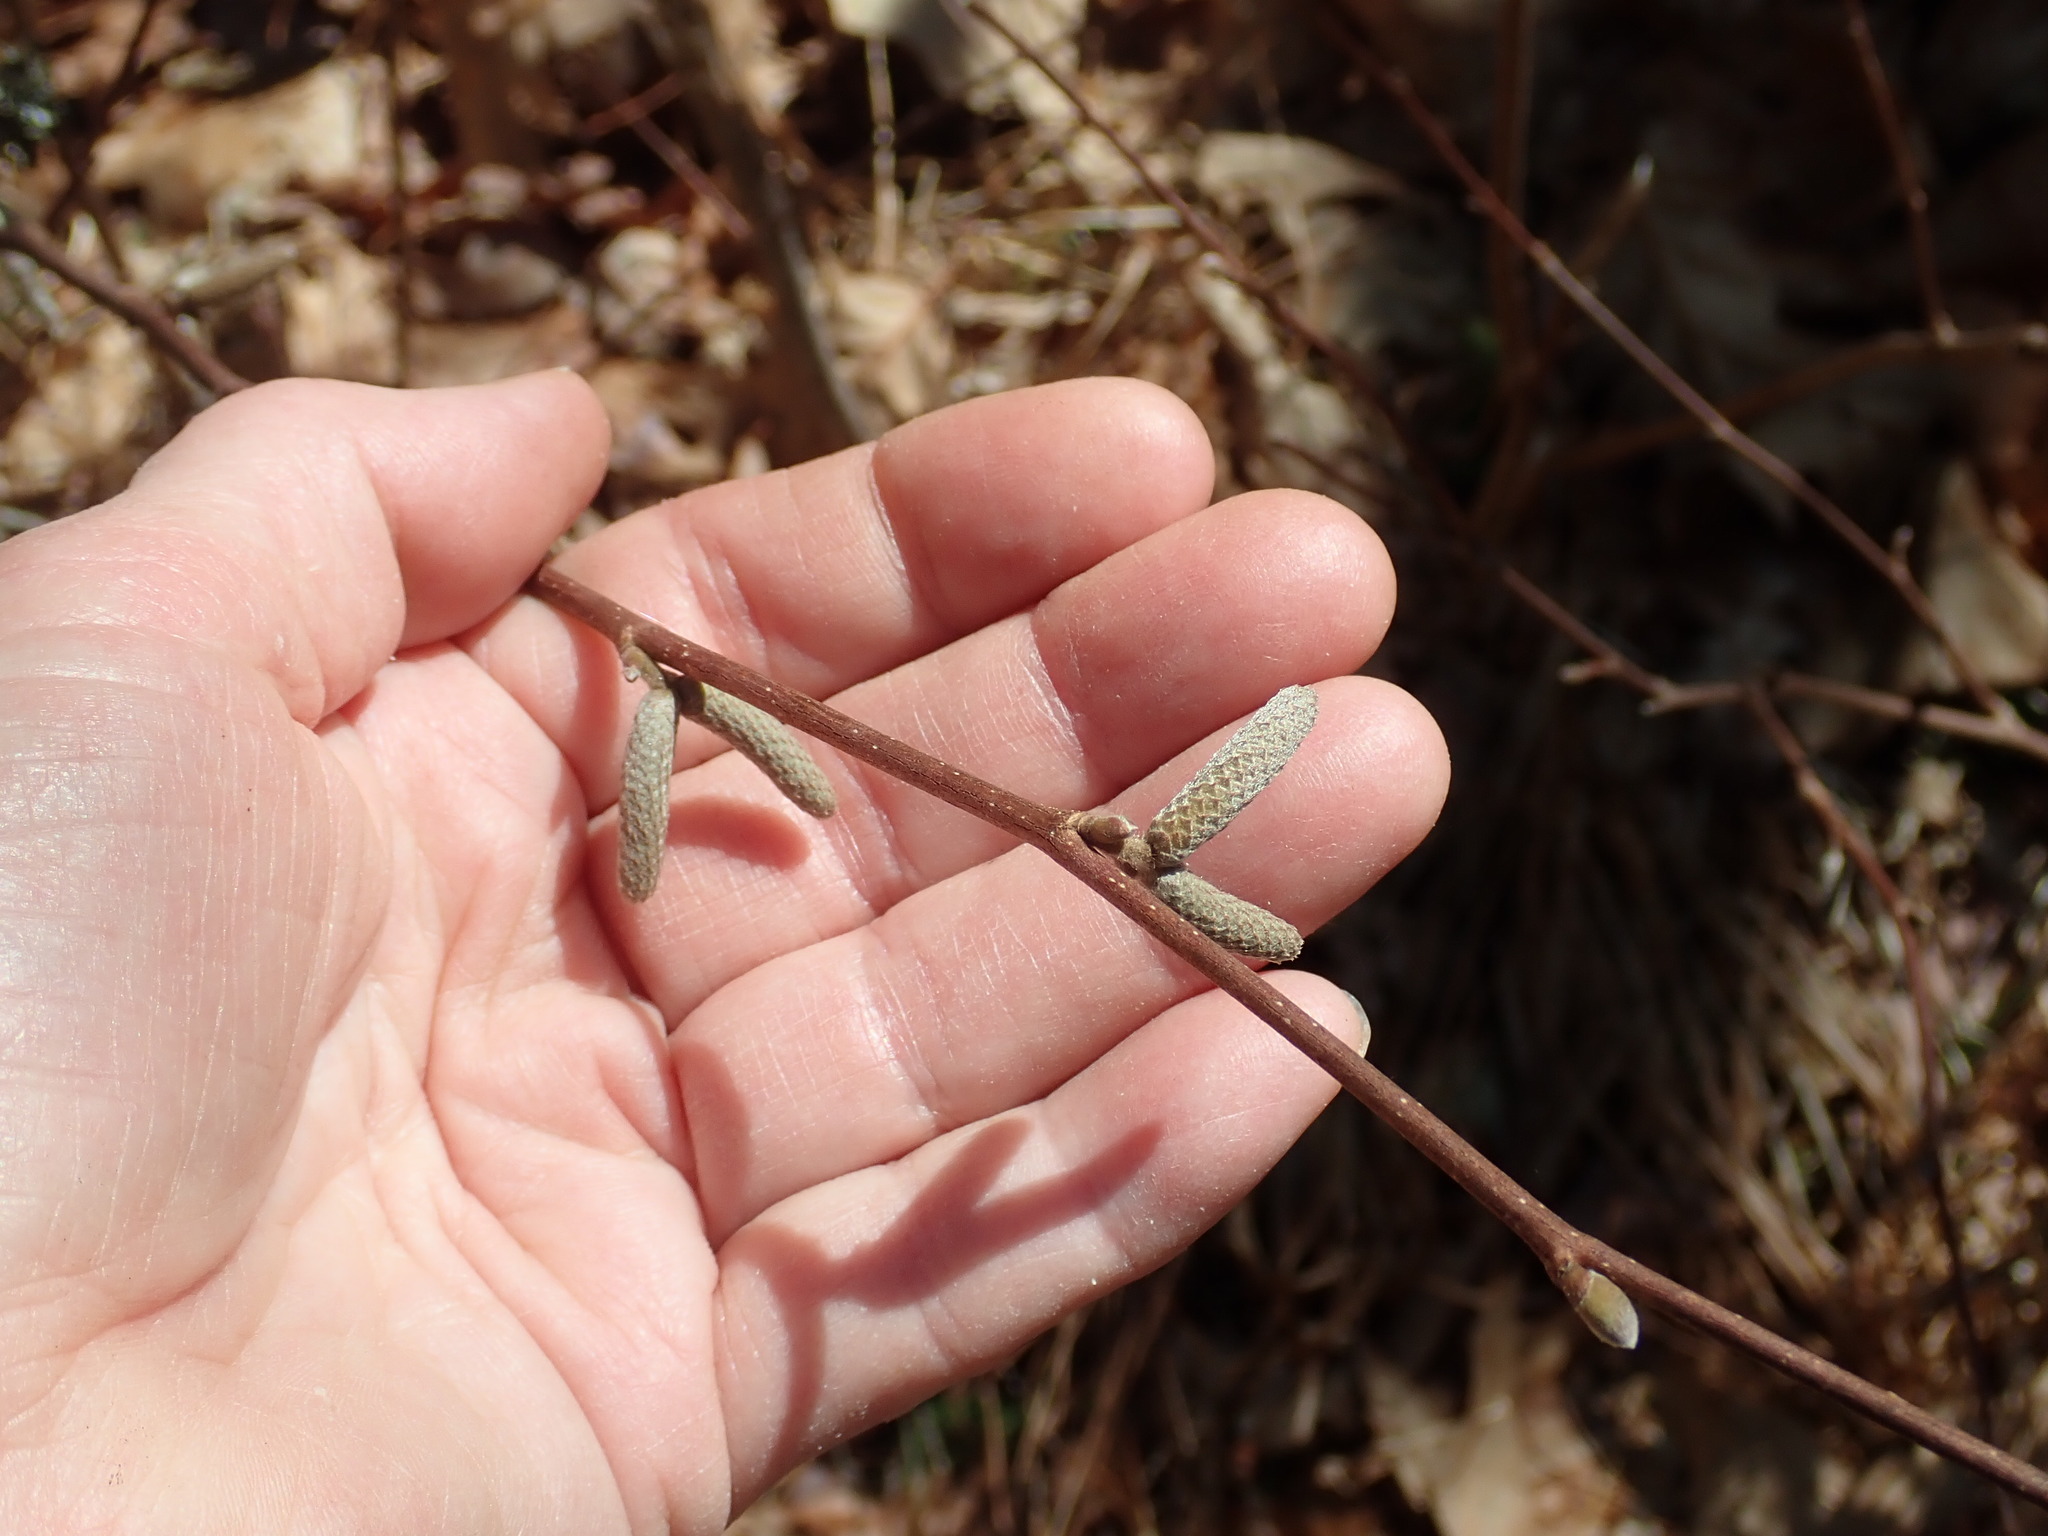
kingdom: Plantae
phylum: Tracheophyta
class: Magnoliopsida
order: Fagales
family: Betulaceae
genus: Corylus
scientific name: Corylus cornuta
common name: Beaked hazel
